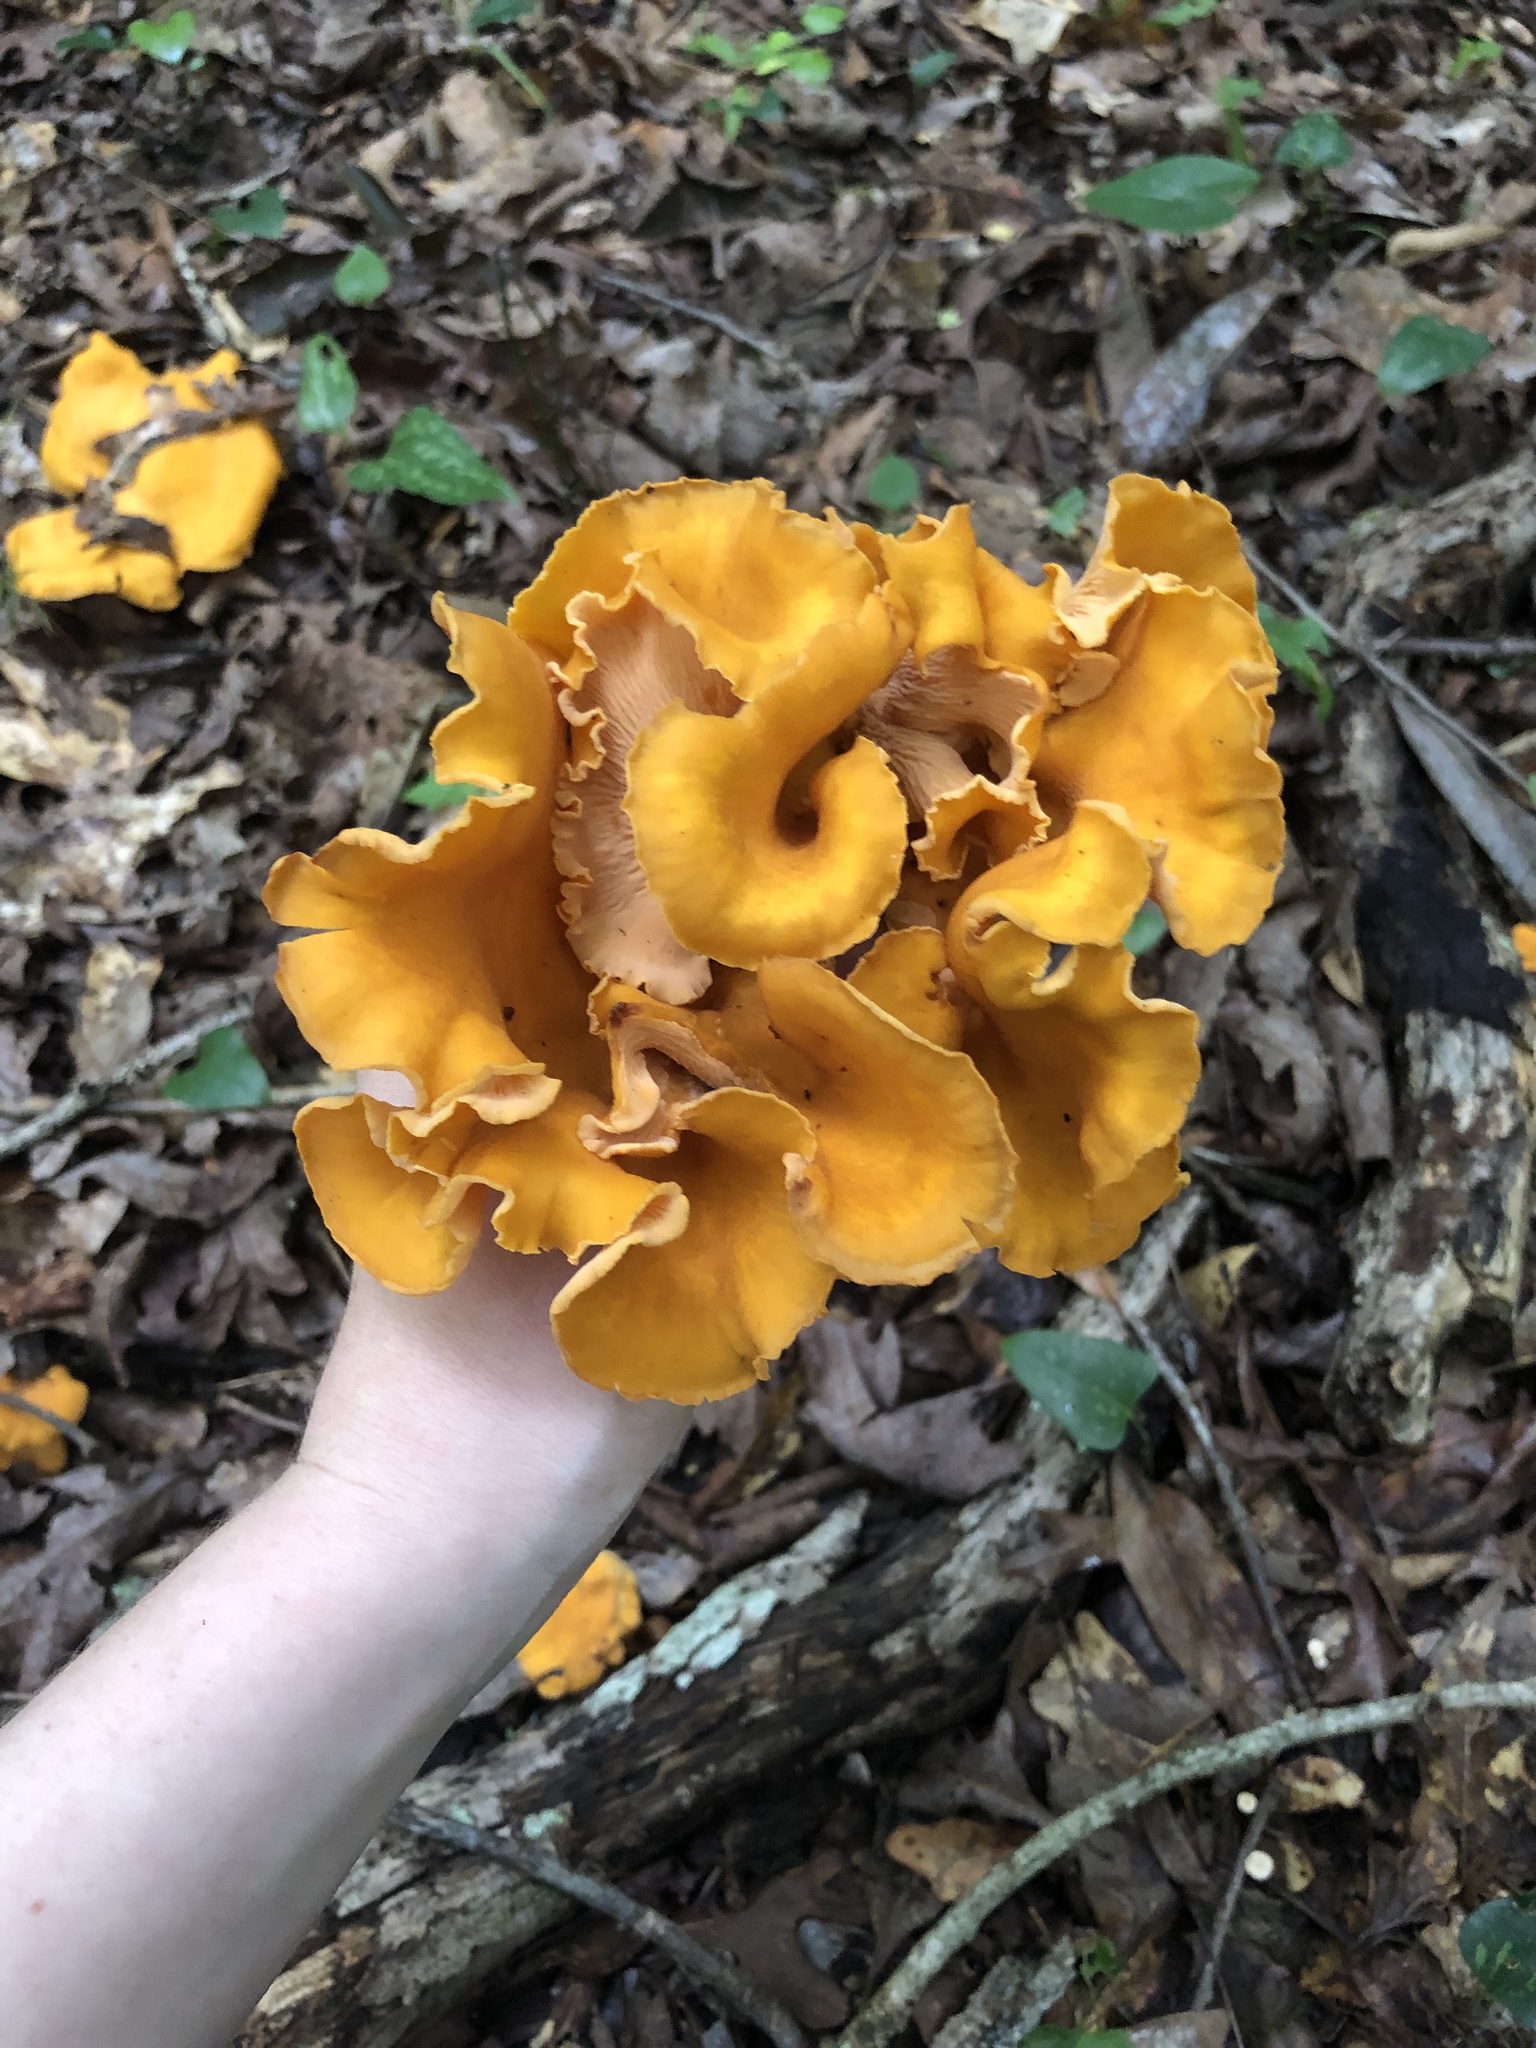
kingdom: Fungi
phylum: Basidiomycota
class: Agaricomycetes
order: Cantharellales
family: Hydnaceae
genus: Cantharellus
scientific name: Cantharellus lateritius
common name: Smooth chanterelle
